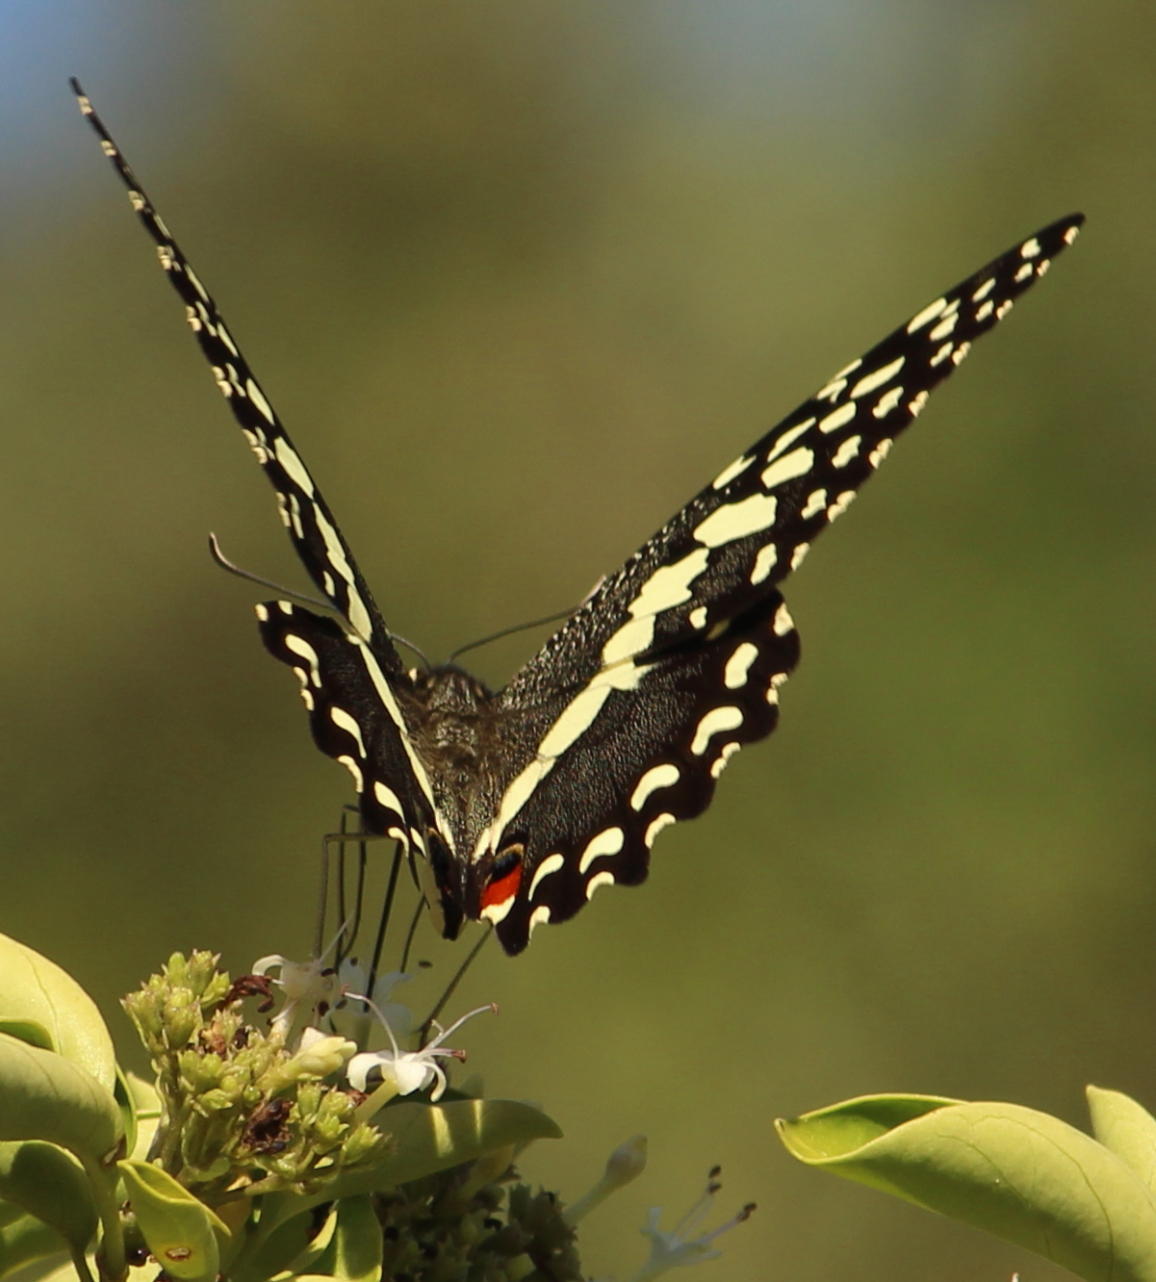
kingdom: Animalia
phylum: Arthropoda
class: Insecta
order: Lepidoptera
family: Papilionidae
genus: Papilio
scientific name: Papilio demodocus
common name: Christmas butterfly
